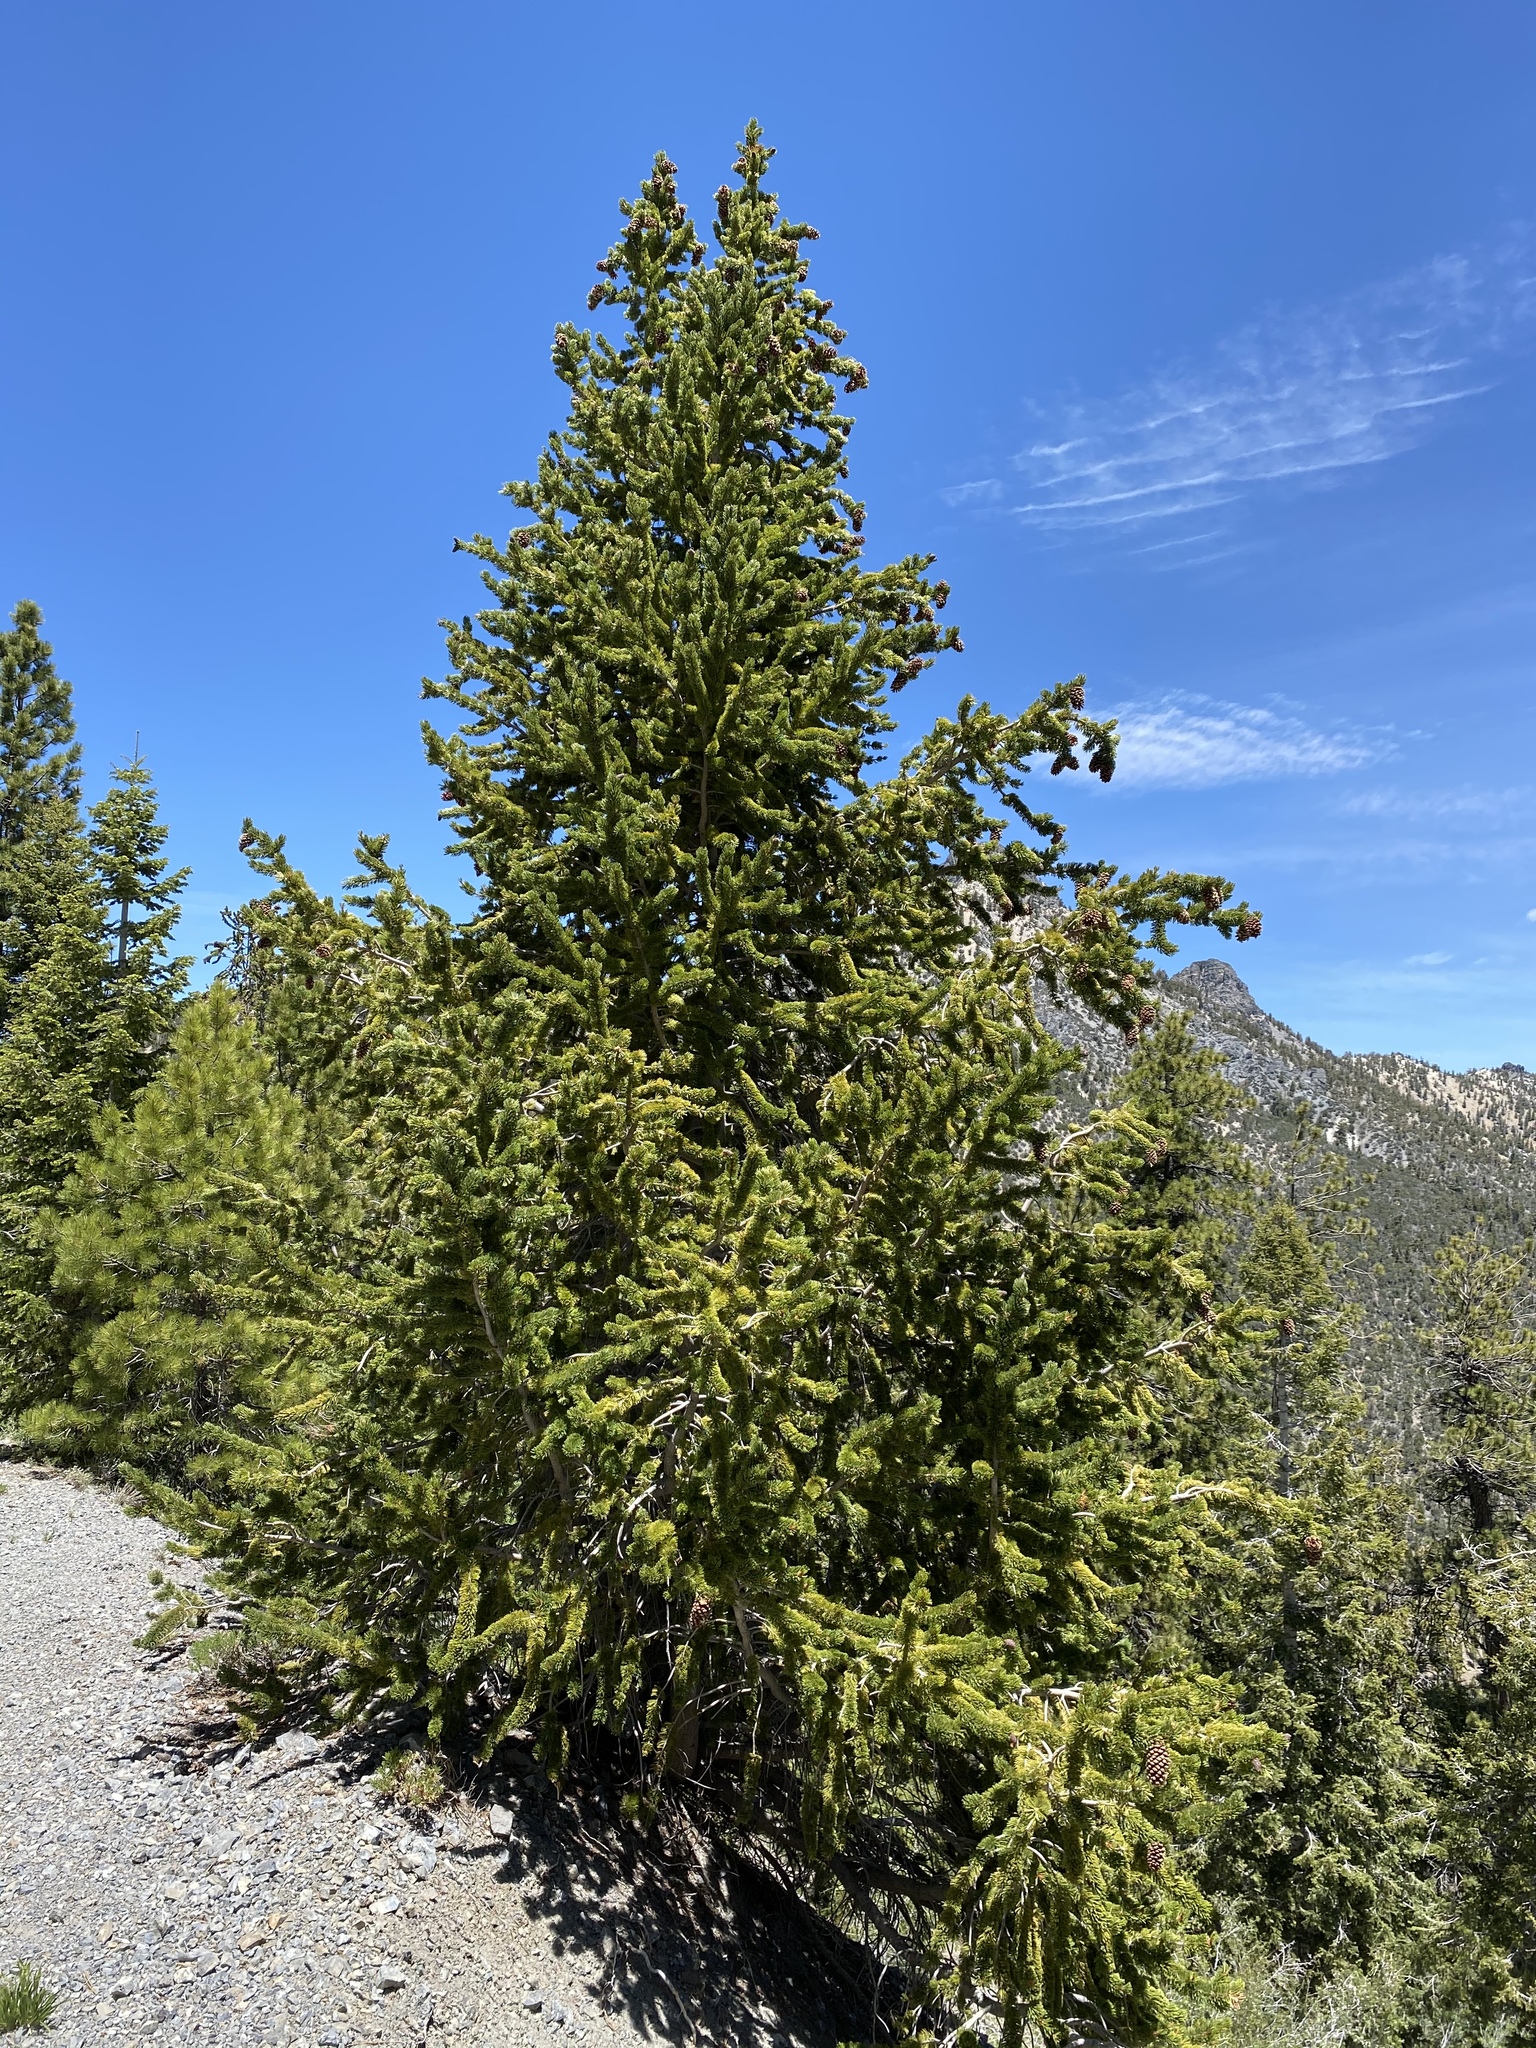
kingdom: Plantae
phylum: Tracheophyta
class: Pinopsida
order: Pinales
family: Pinaceae
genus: Pinus
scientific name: Pinus longaeva
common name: Intermountain bristlecone pine
